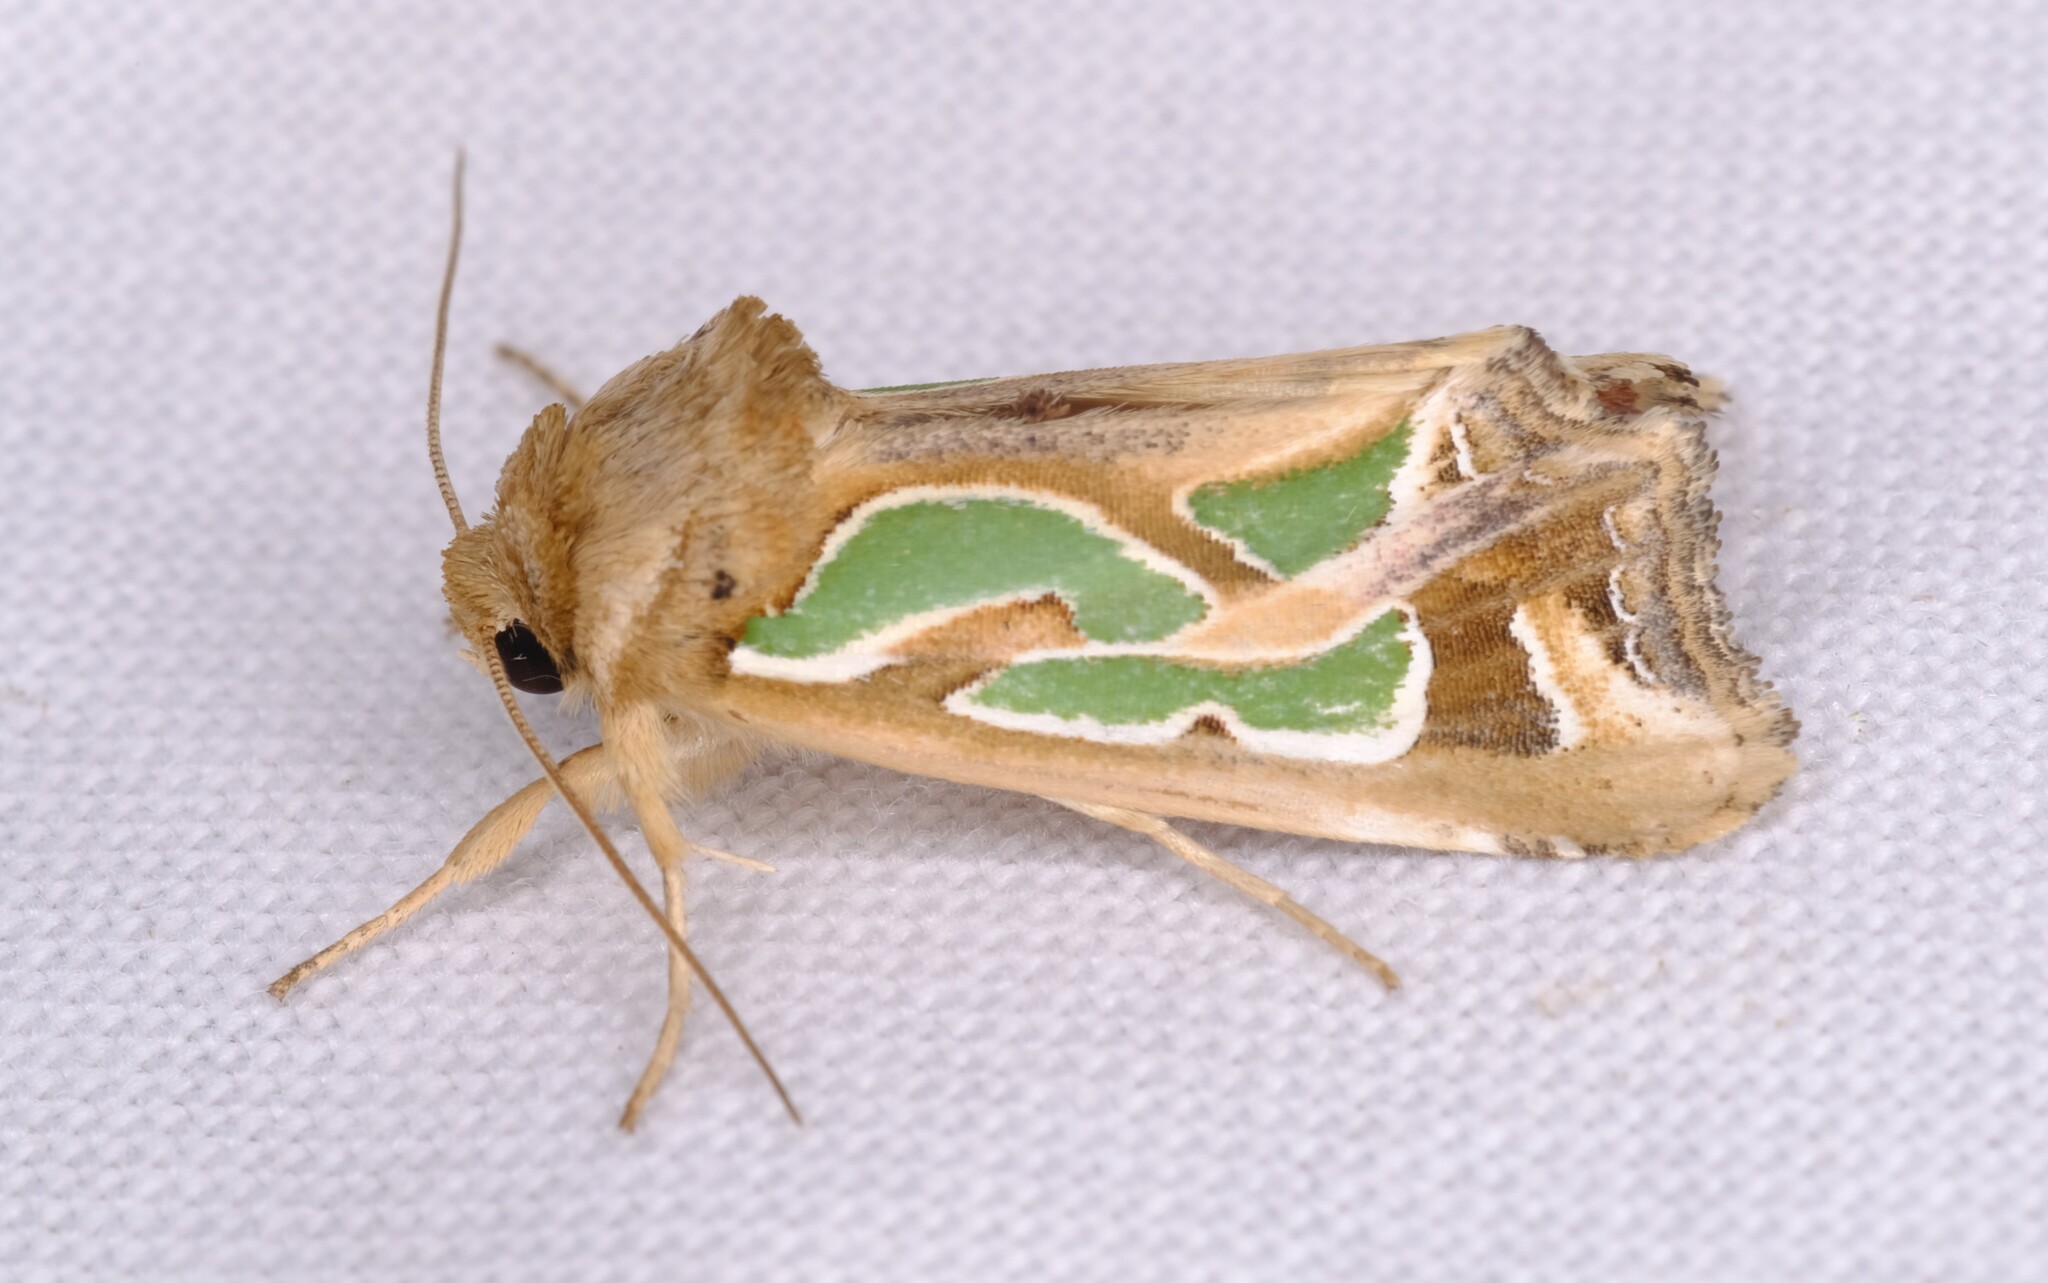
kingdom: Animalia
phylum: Arthropoda
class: Insecta
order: Lepidoptera
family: Noctuidae
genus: Cosmodes
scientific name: Cosmodes elegans
